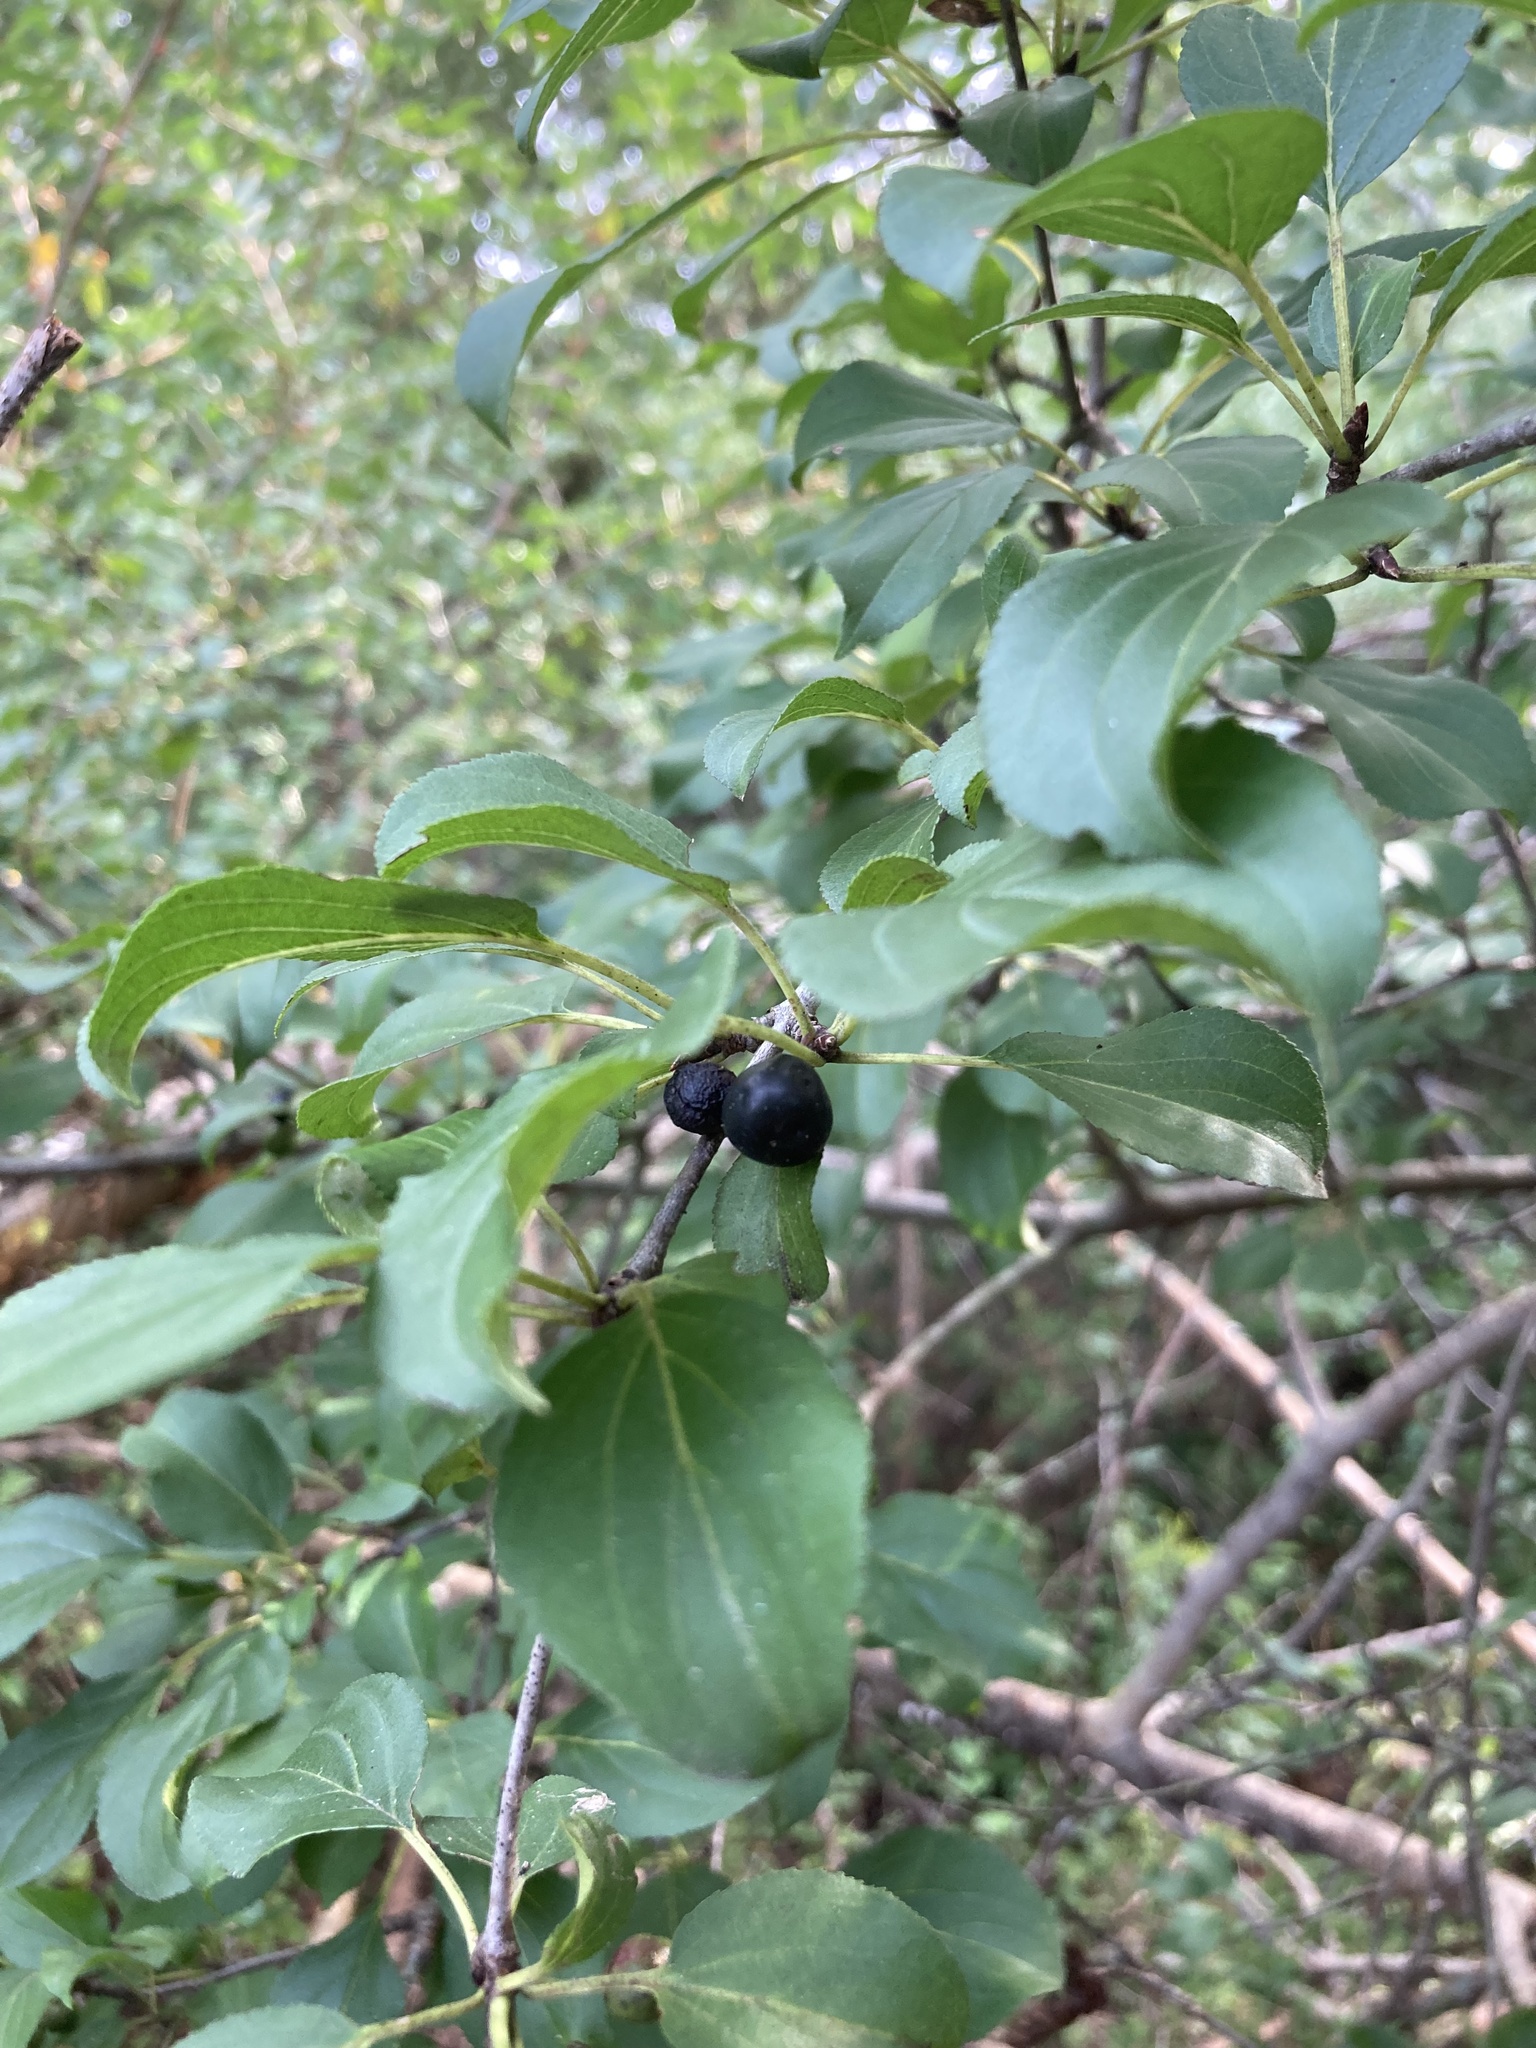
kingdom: Plantae
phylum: Tracheophyta
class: Magnoliopsida
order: Rosales
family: Rhamnaceae
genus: Rhamnus
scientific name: Rhamnus cathartica
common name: Common buckthorn
